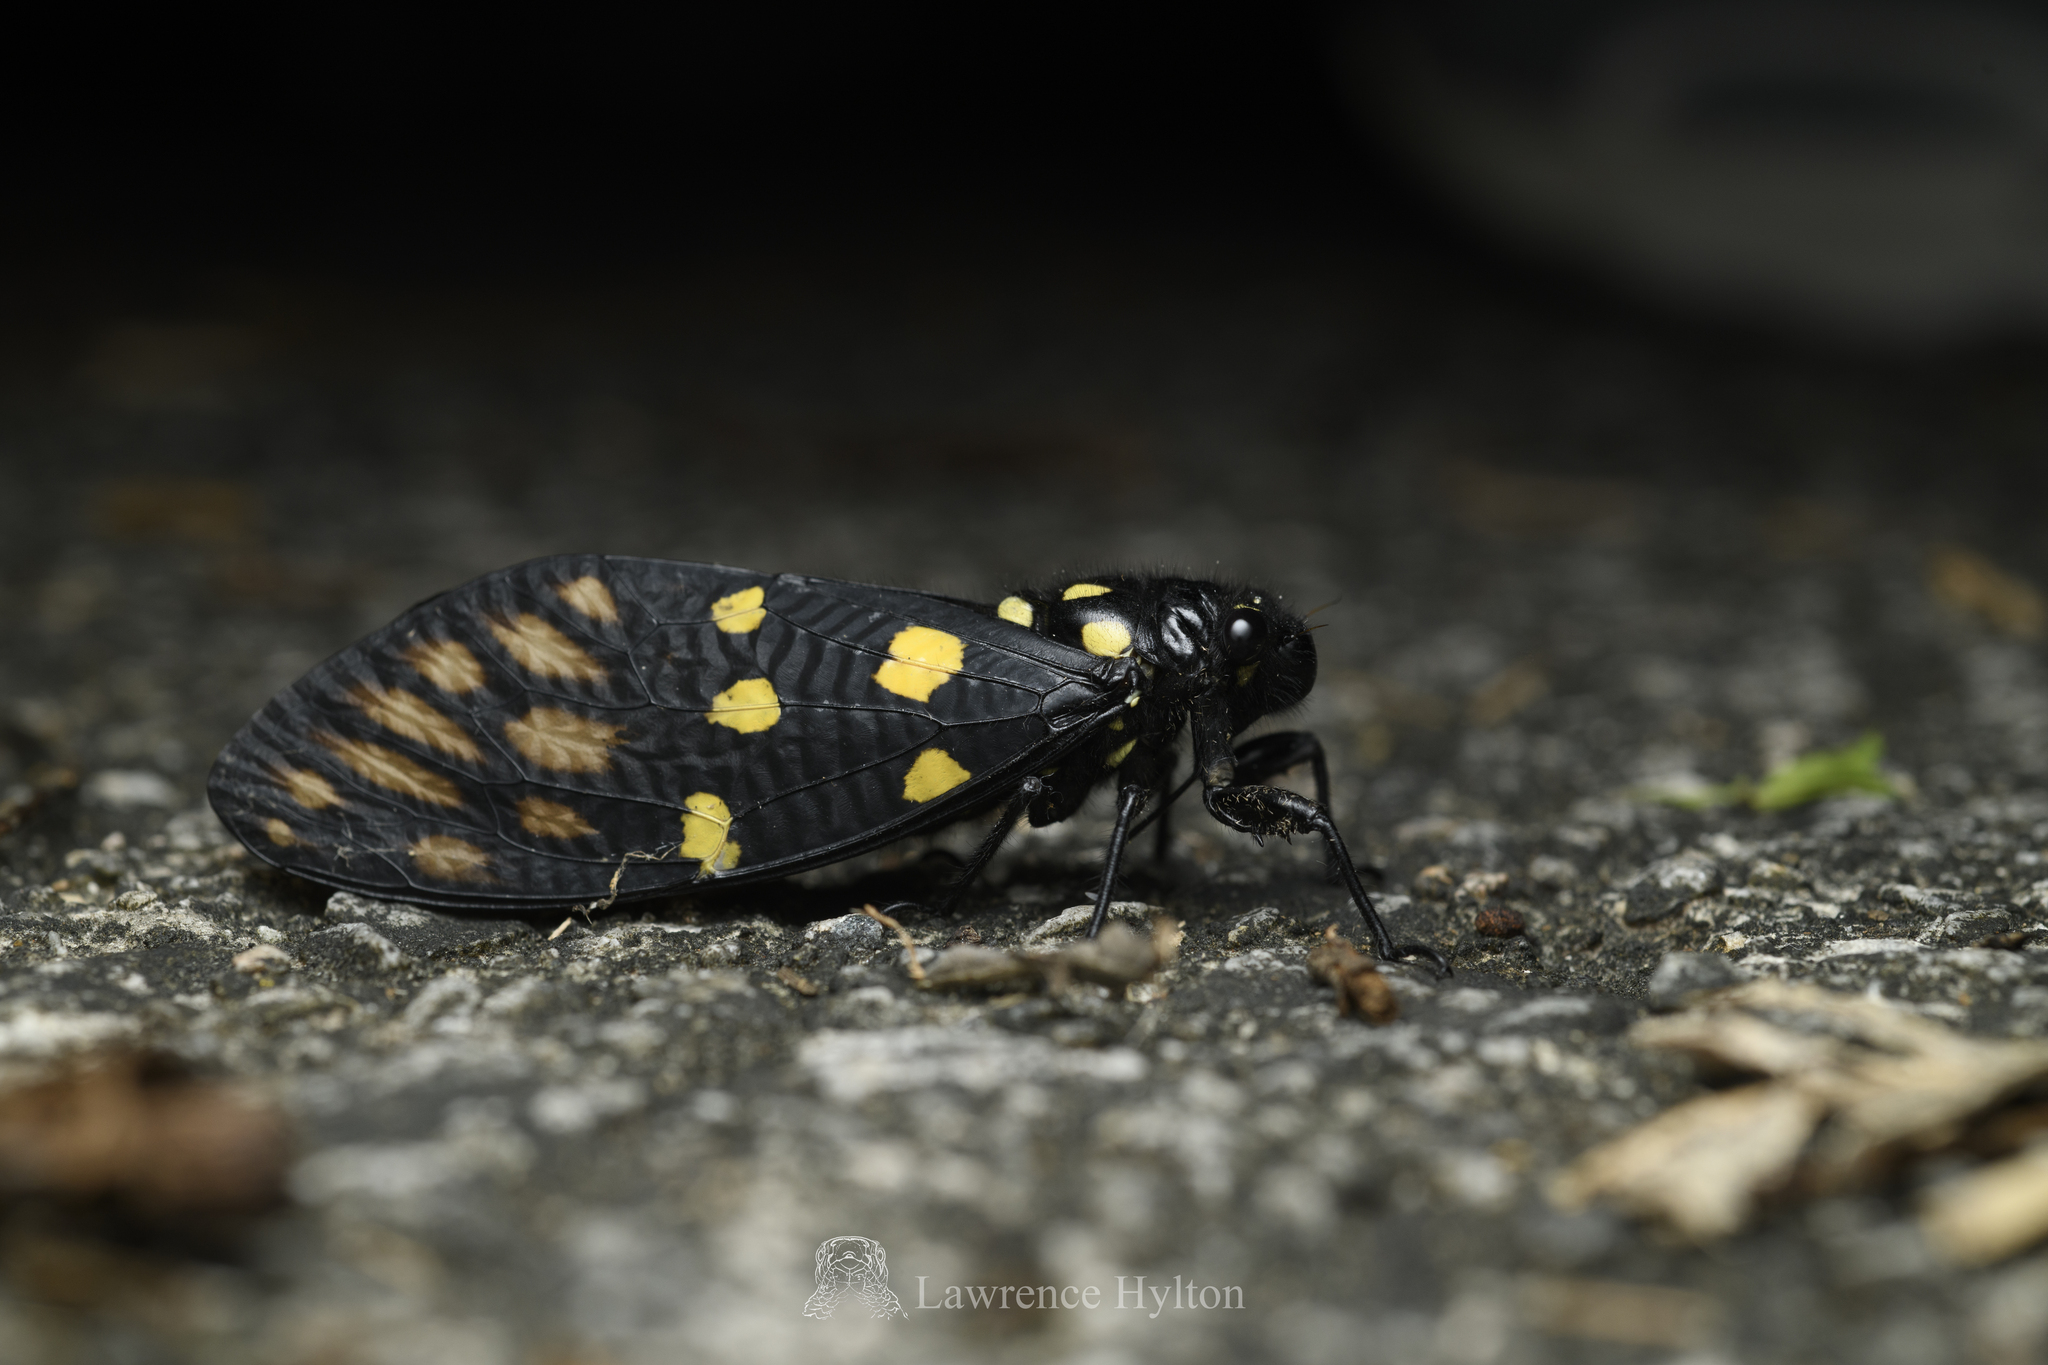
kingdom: Animalia
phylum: Arthropoda
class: Insecta
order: Hemiptera
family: Cicadidae
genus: Gaeana
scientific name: Gaeana maculata
